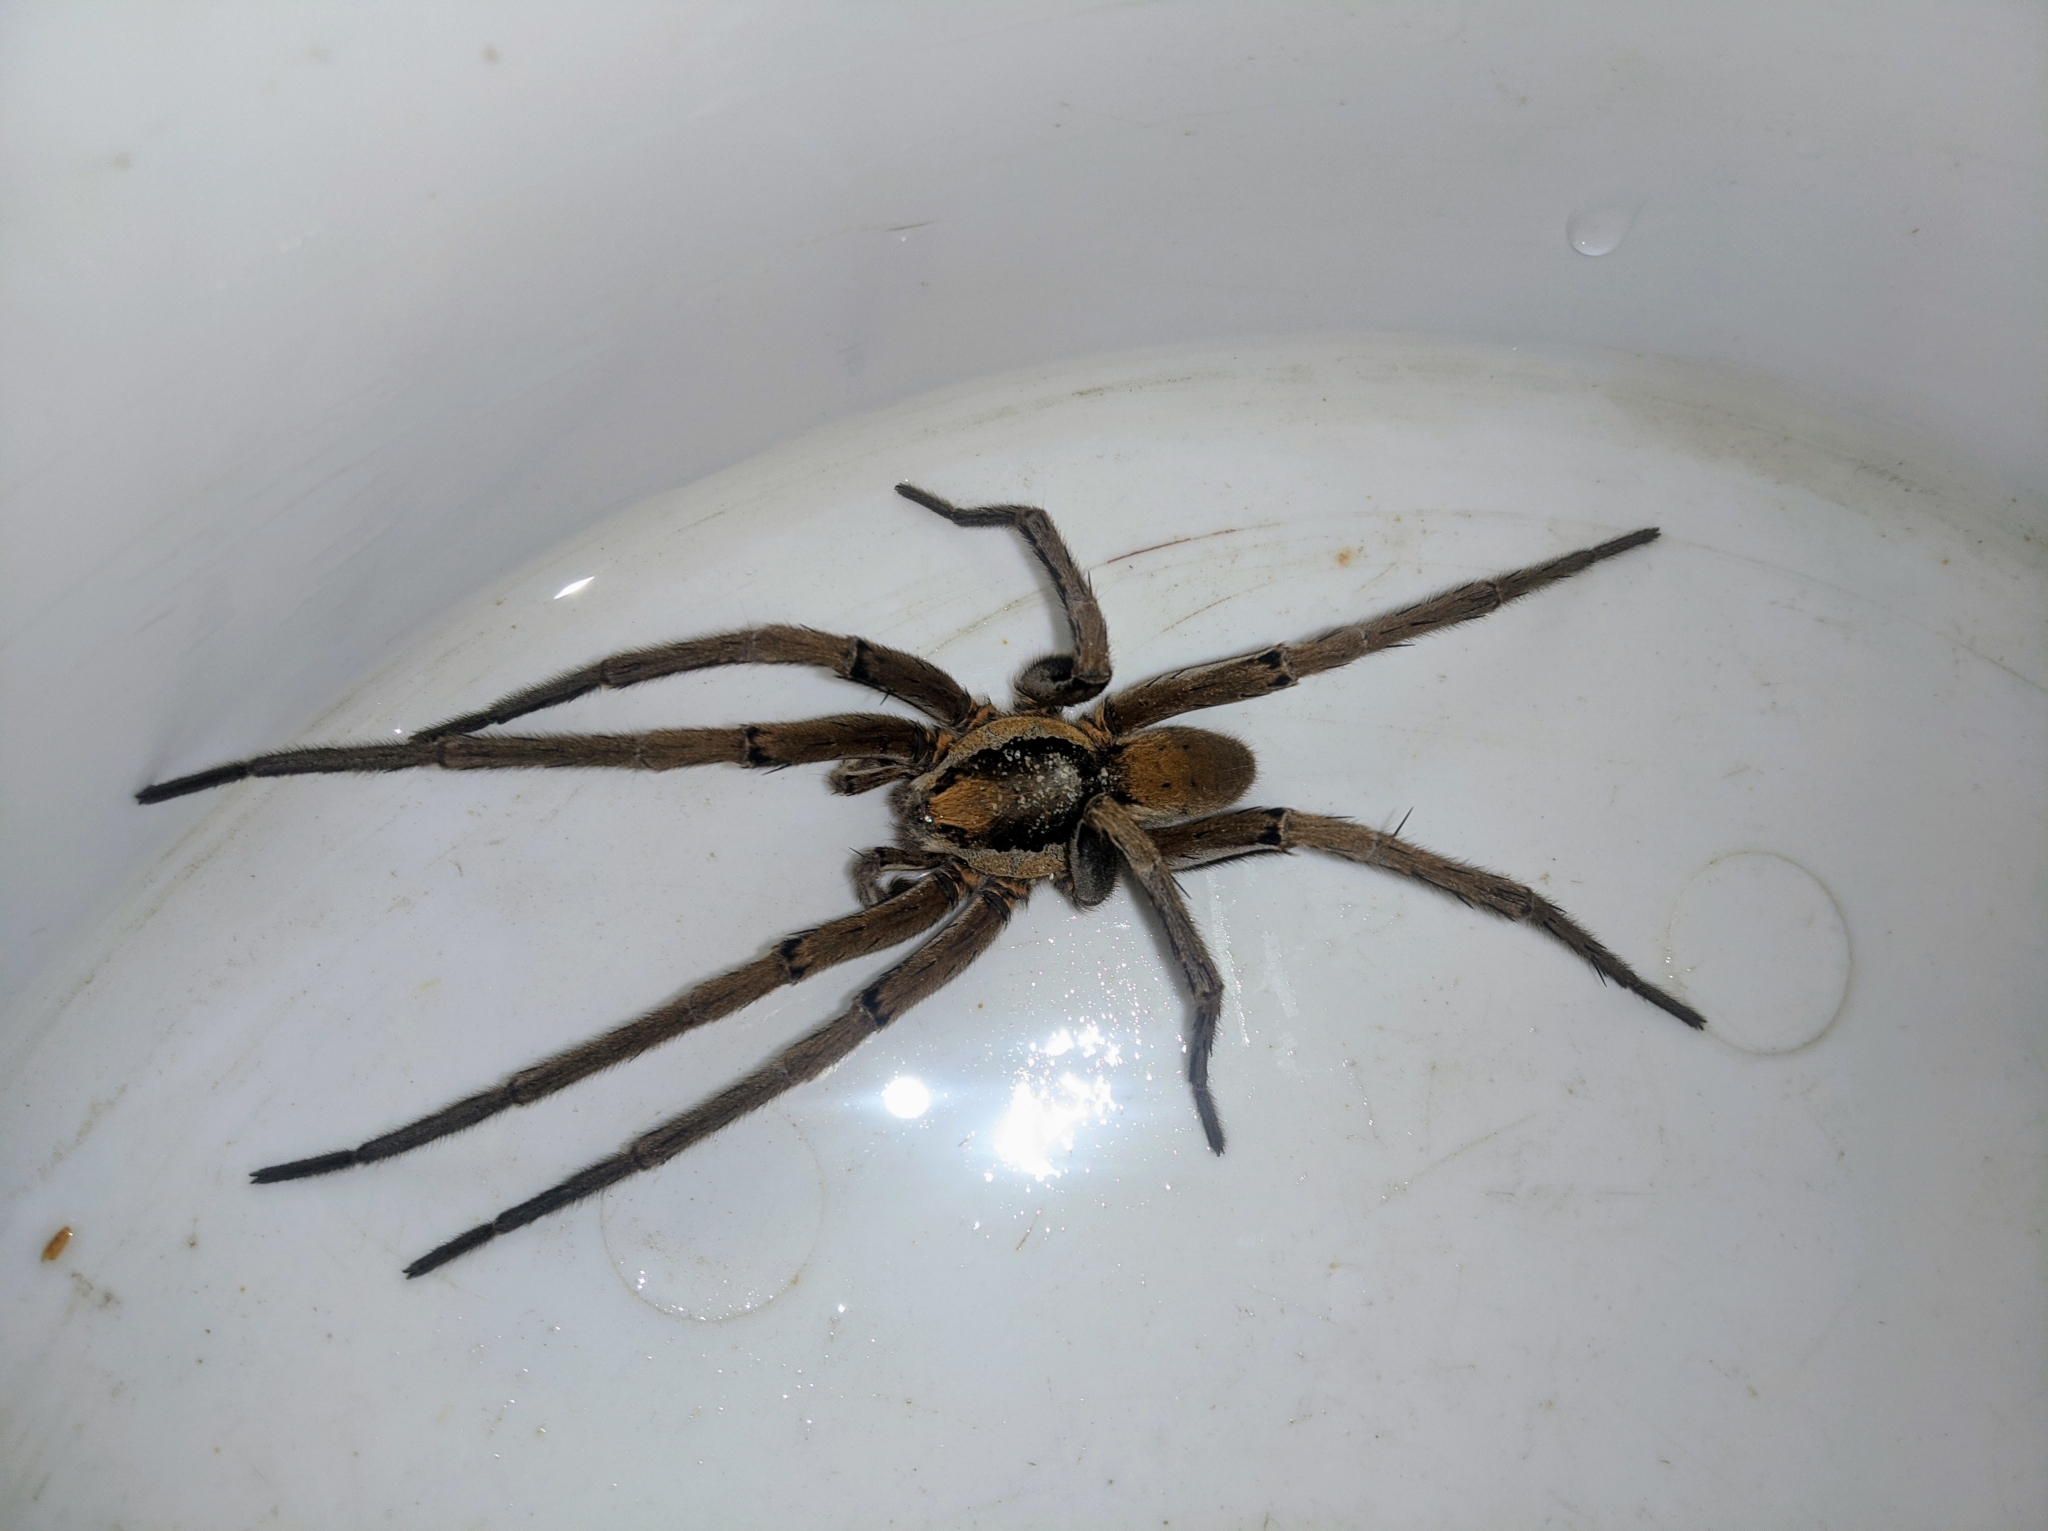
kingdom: Animalia
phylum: Arthropoda
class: Arachnida
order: Araneae
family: Ctenidae
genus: Ancylometes
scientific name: Ancylometes
